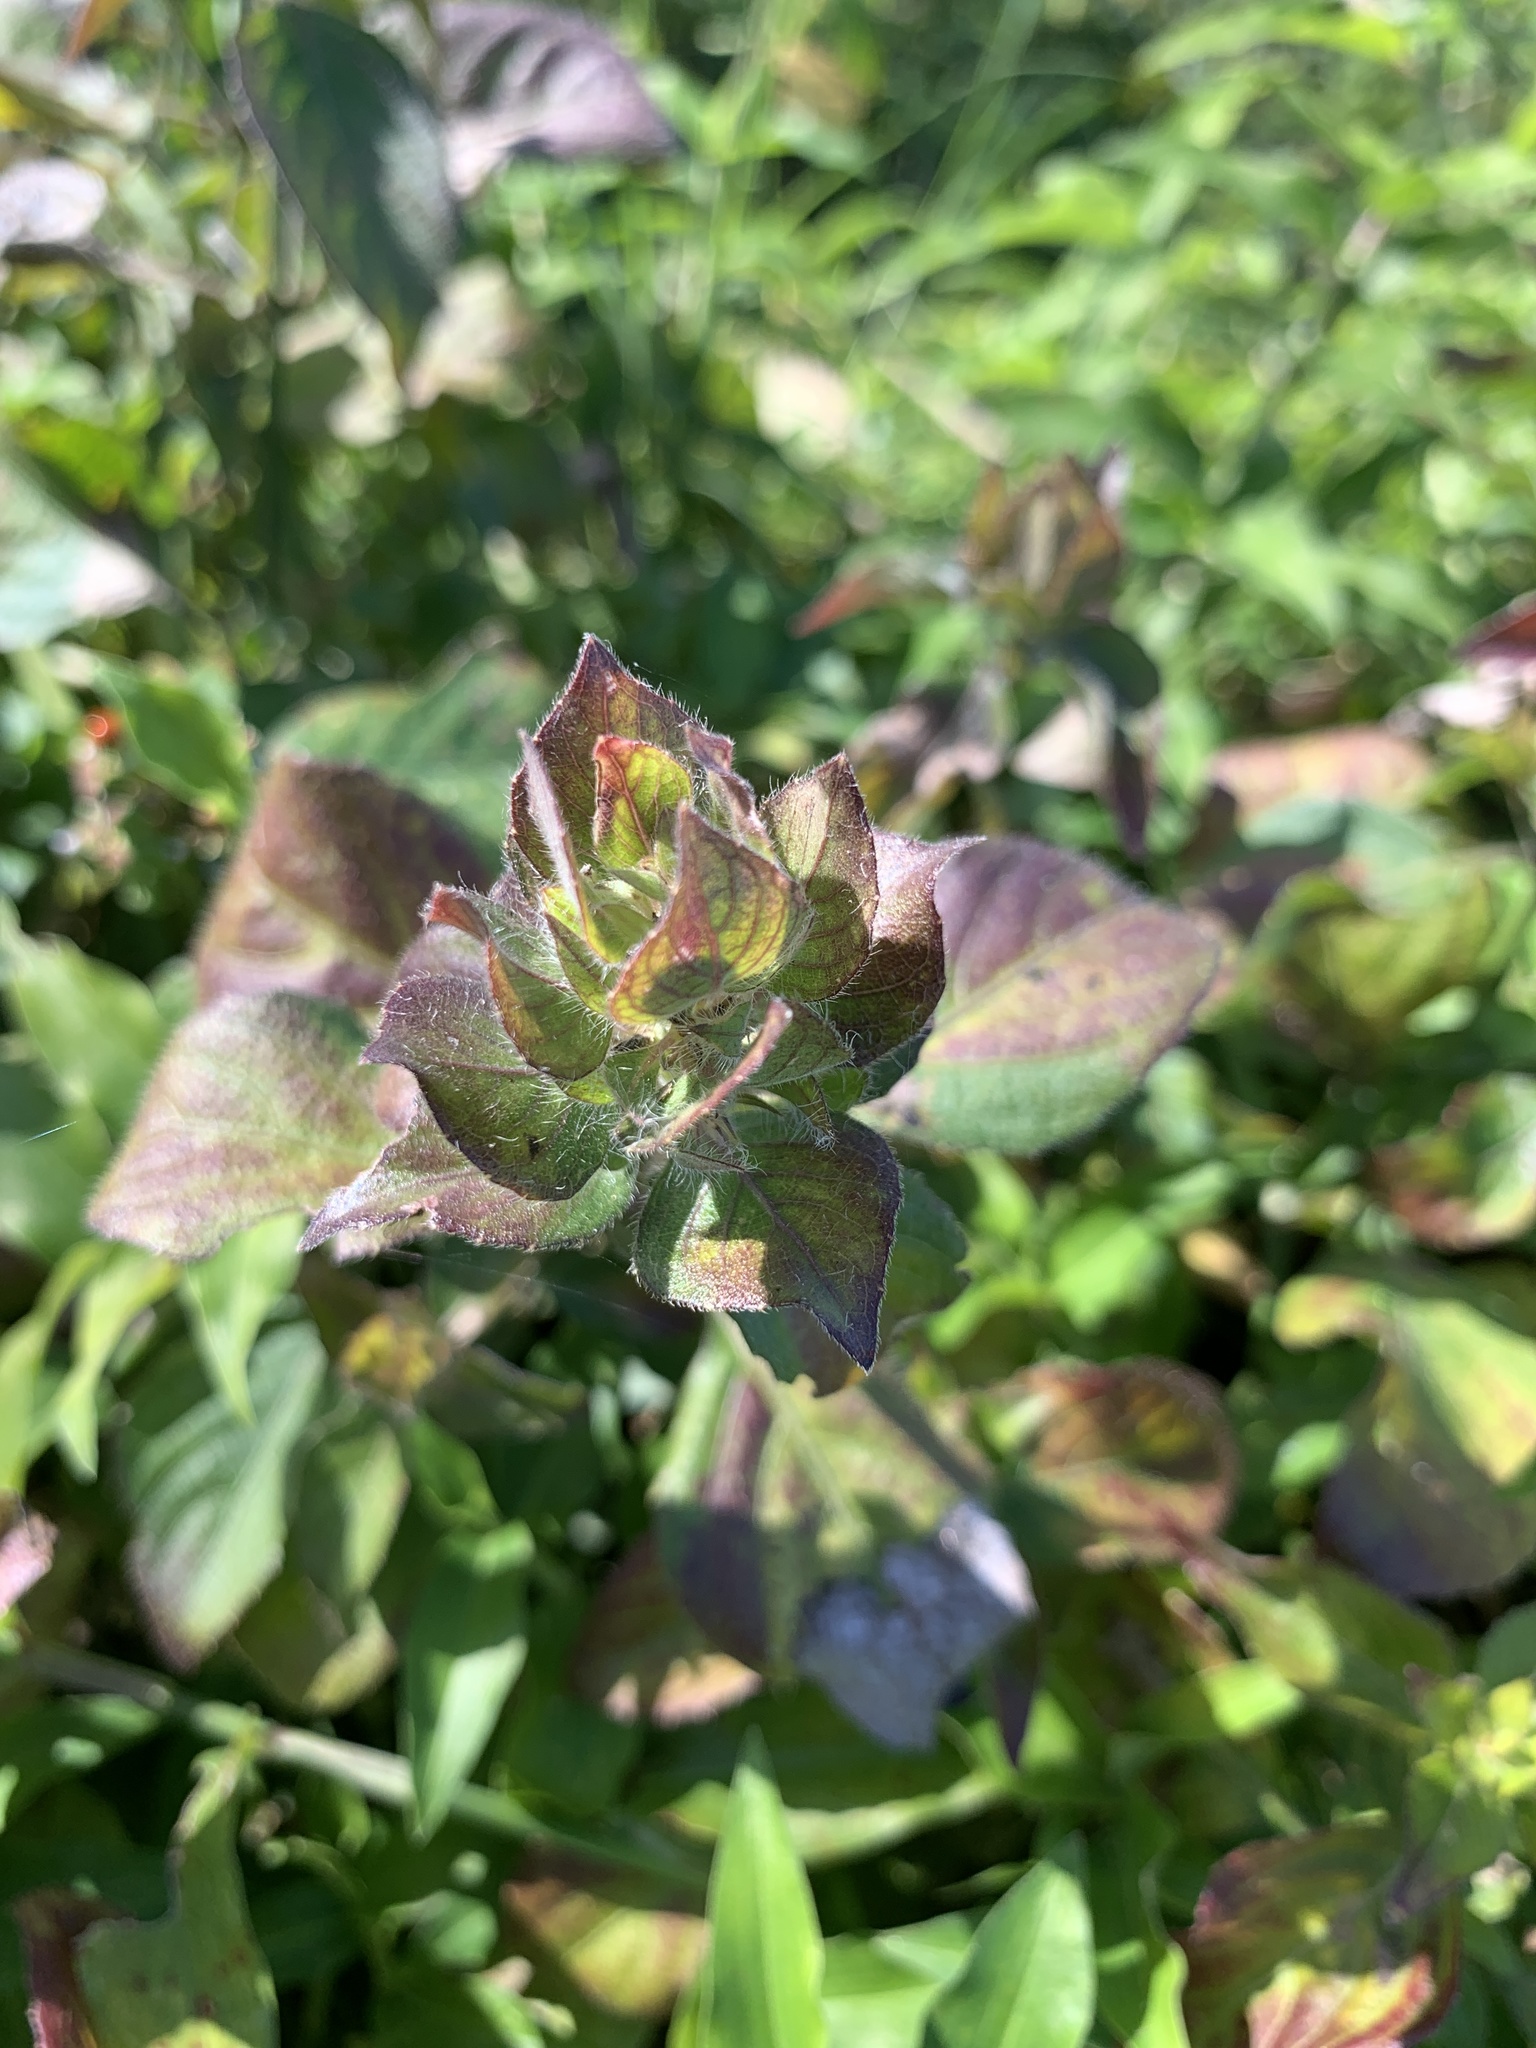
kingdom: Plantae
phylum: Tracheophyta
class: Magnoliopsida
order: Lamiales
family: Acanthaceae
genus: Ruellia
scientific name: Ruellia blechum
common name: Browne's blechum
